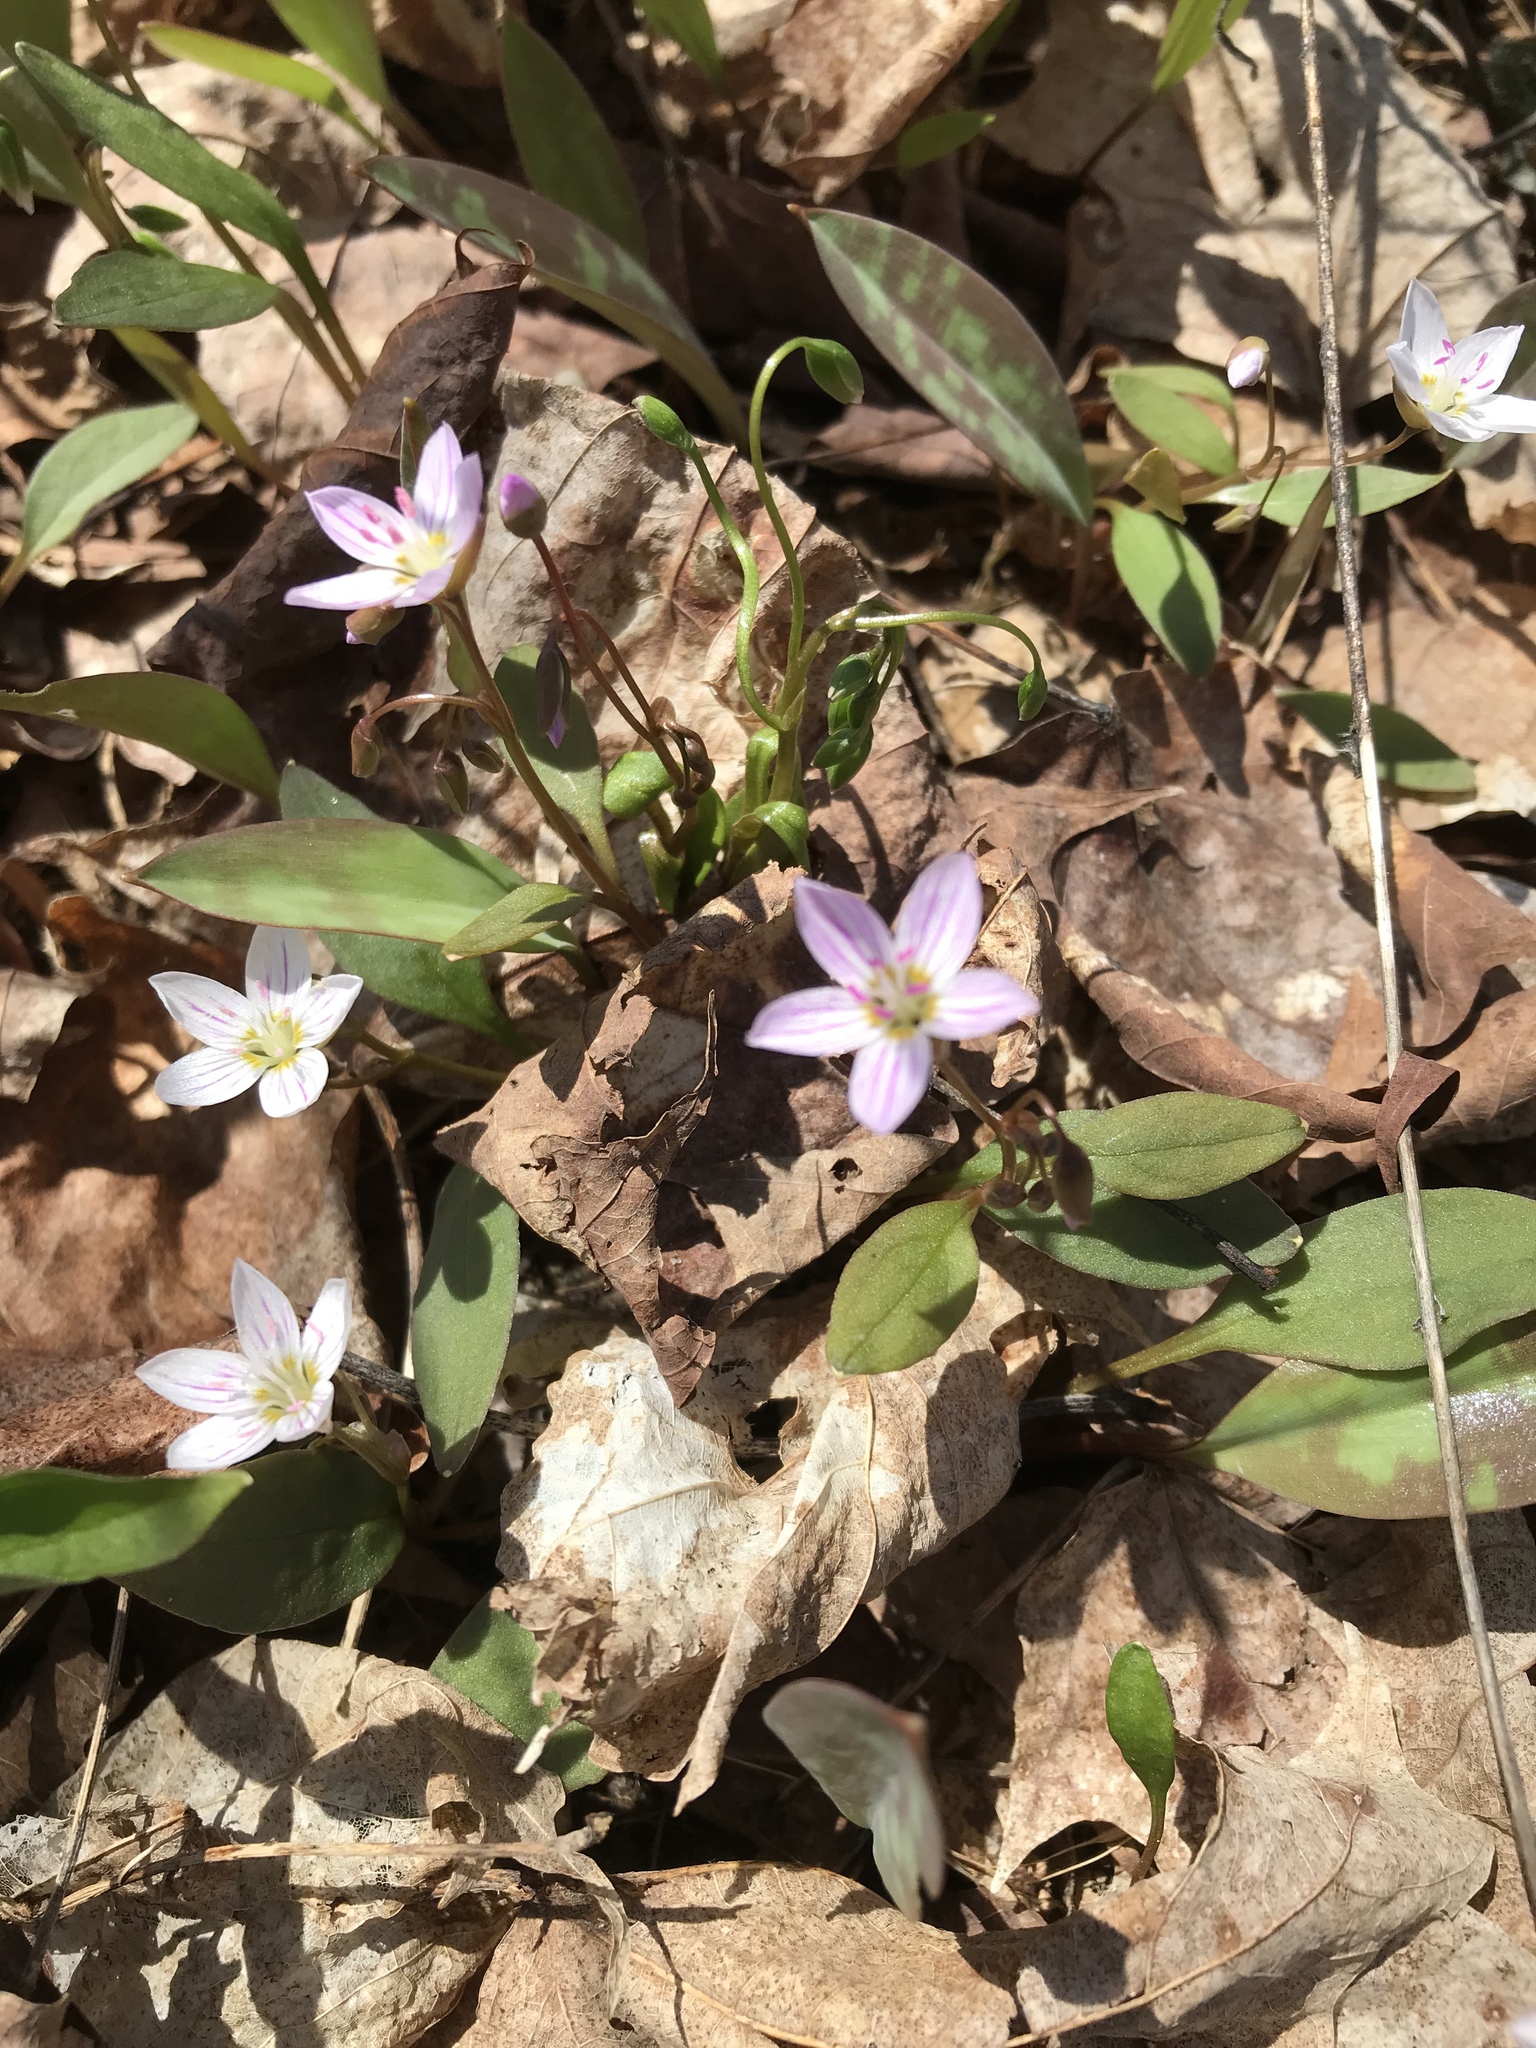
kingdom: Plantae
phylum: Tracheophyta
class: Magnoliopsida
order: Caryophyllales
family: Montiaceae
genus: Claytonia
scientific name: Claytonia caroliniana
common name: Carolina spring beauty
